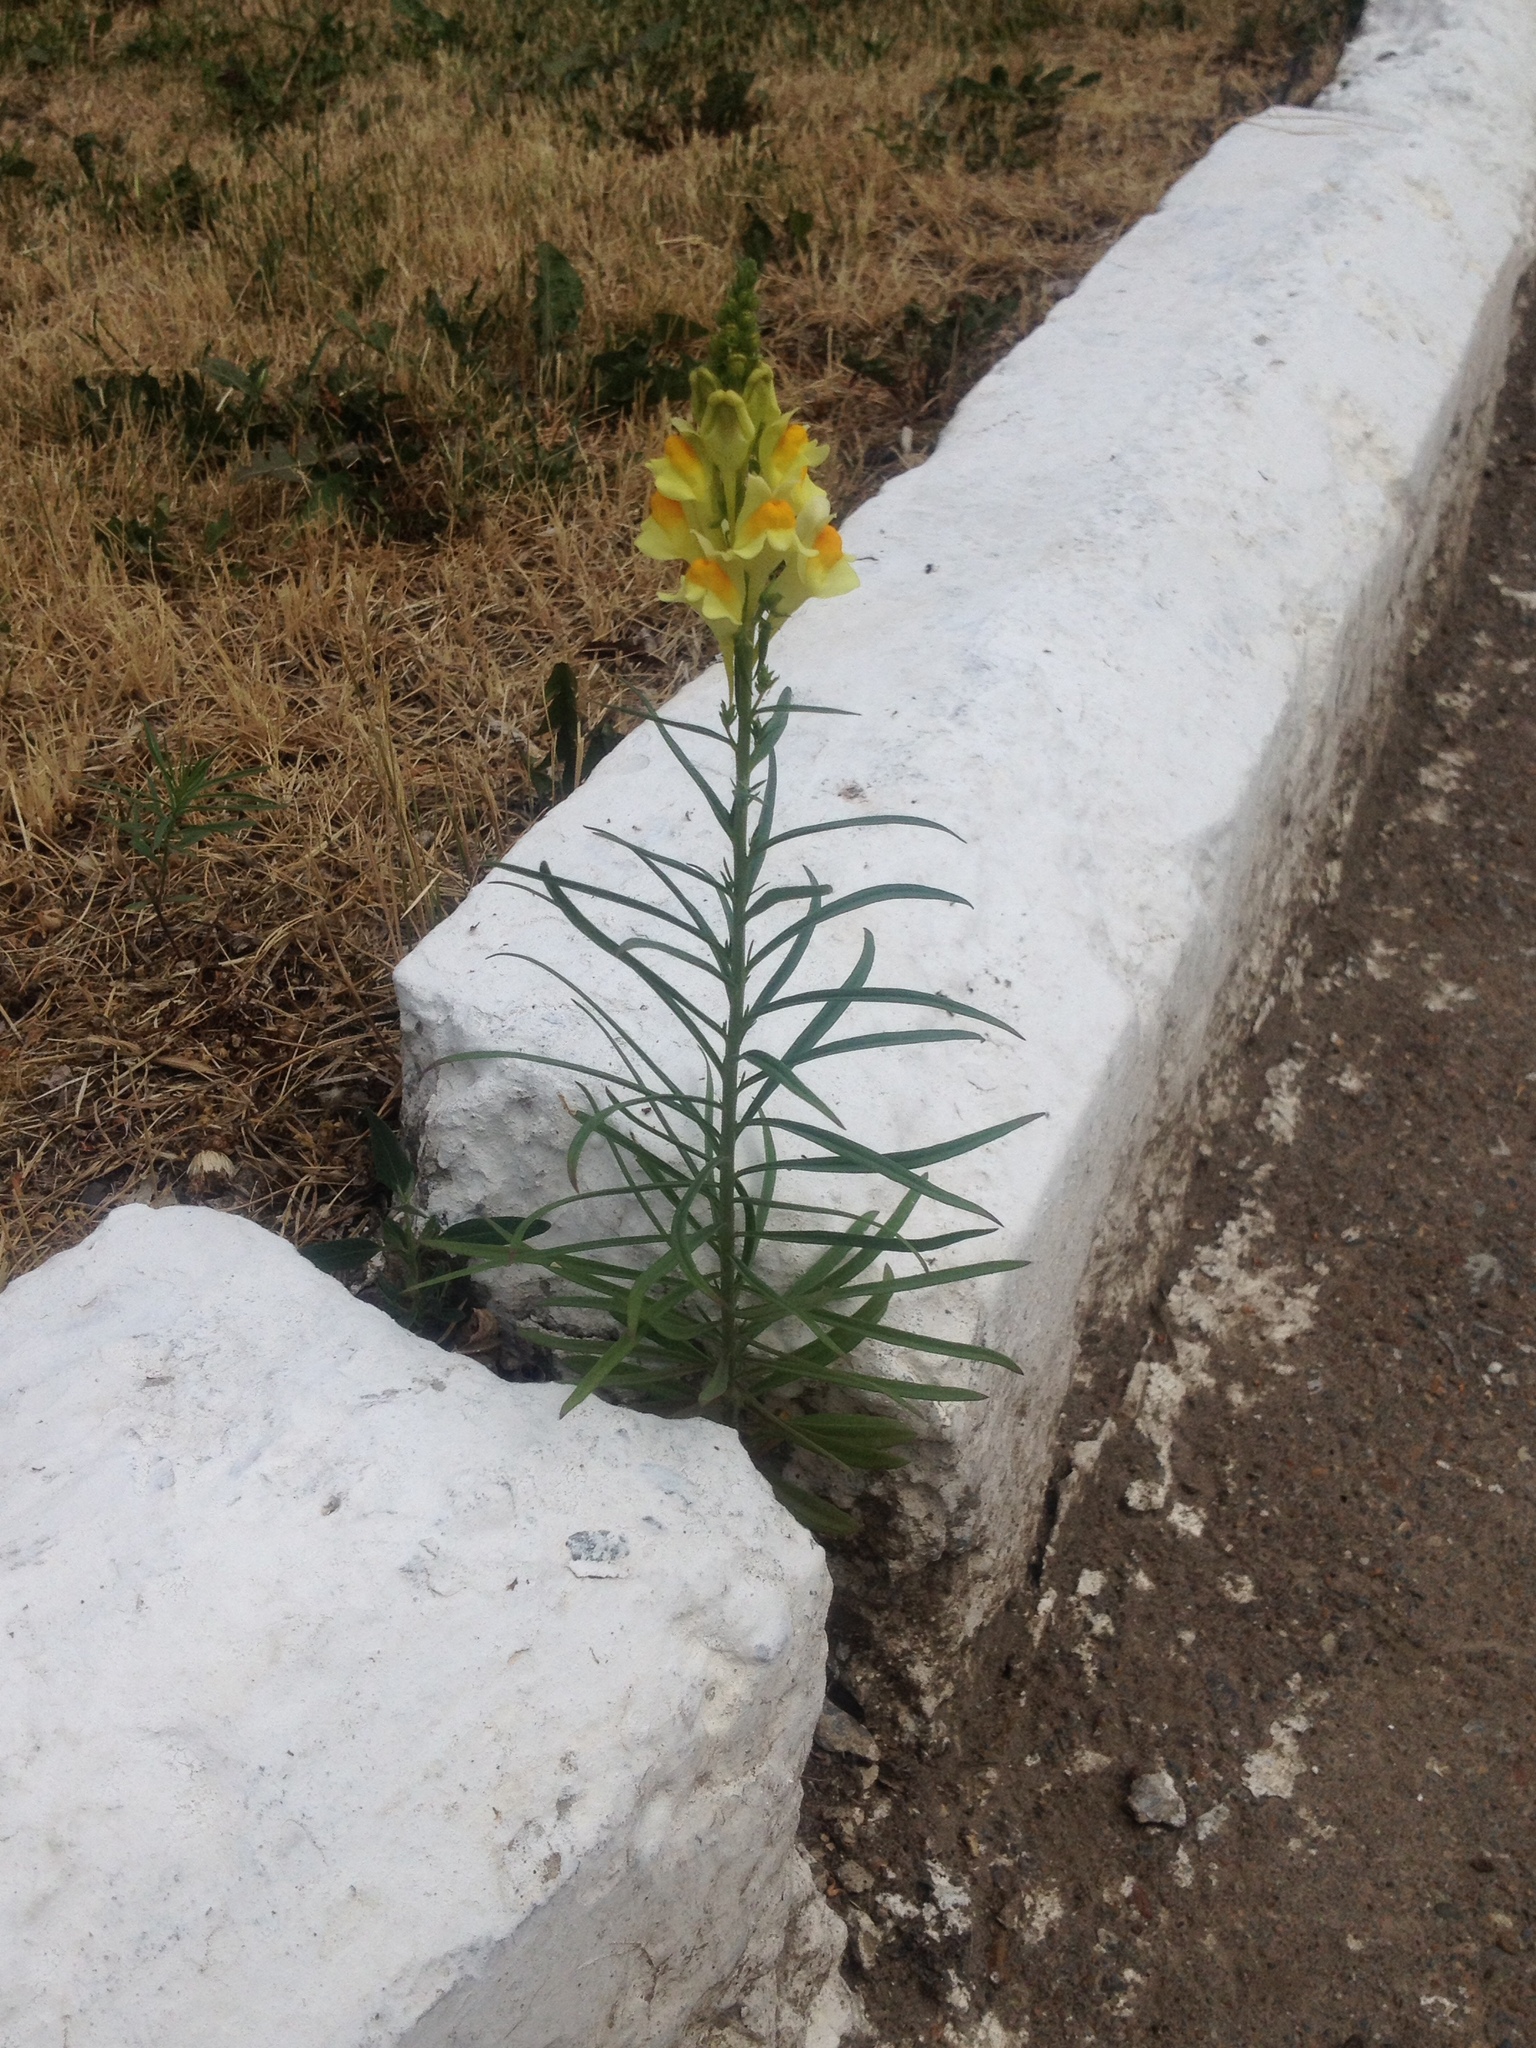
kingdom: Plantae
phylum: Tracheophyta
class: Magnoliopsida
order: Lamiales
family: Plantaginaceae
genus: Linaria
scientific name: Linaria vulgaris
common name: Butter and eggs
